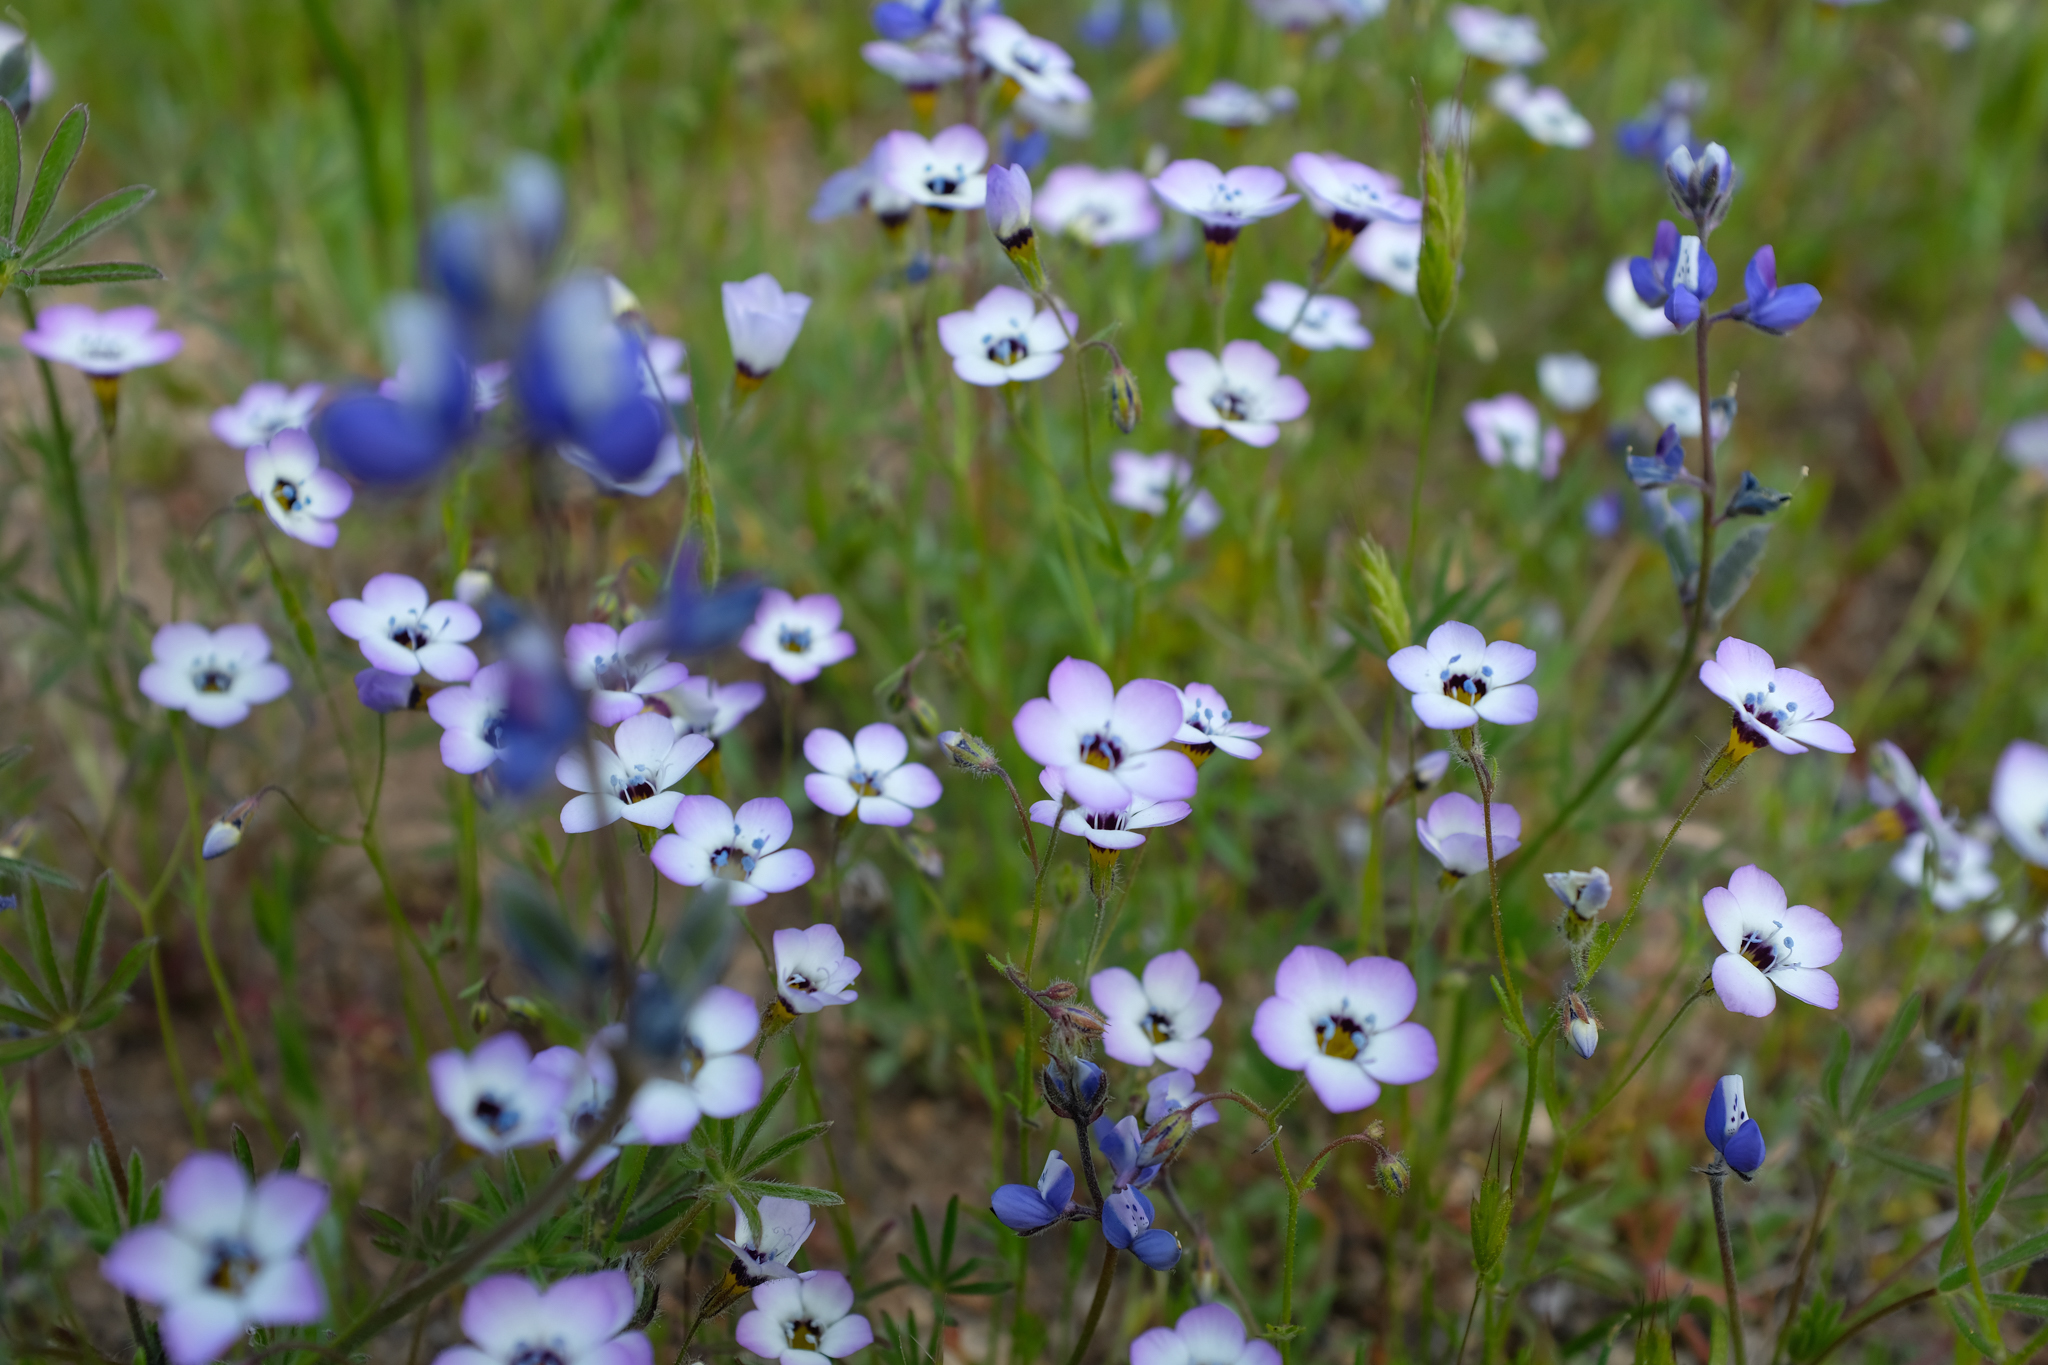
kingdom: Plantae
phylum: Tracheophyta
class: Magnoliopsida
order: Ericales
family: Polemoniaceae
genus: Gilia
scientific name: Gilia tricolor
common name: Bird's-eyes
